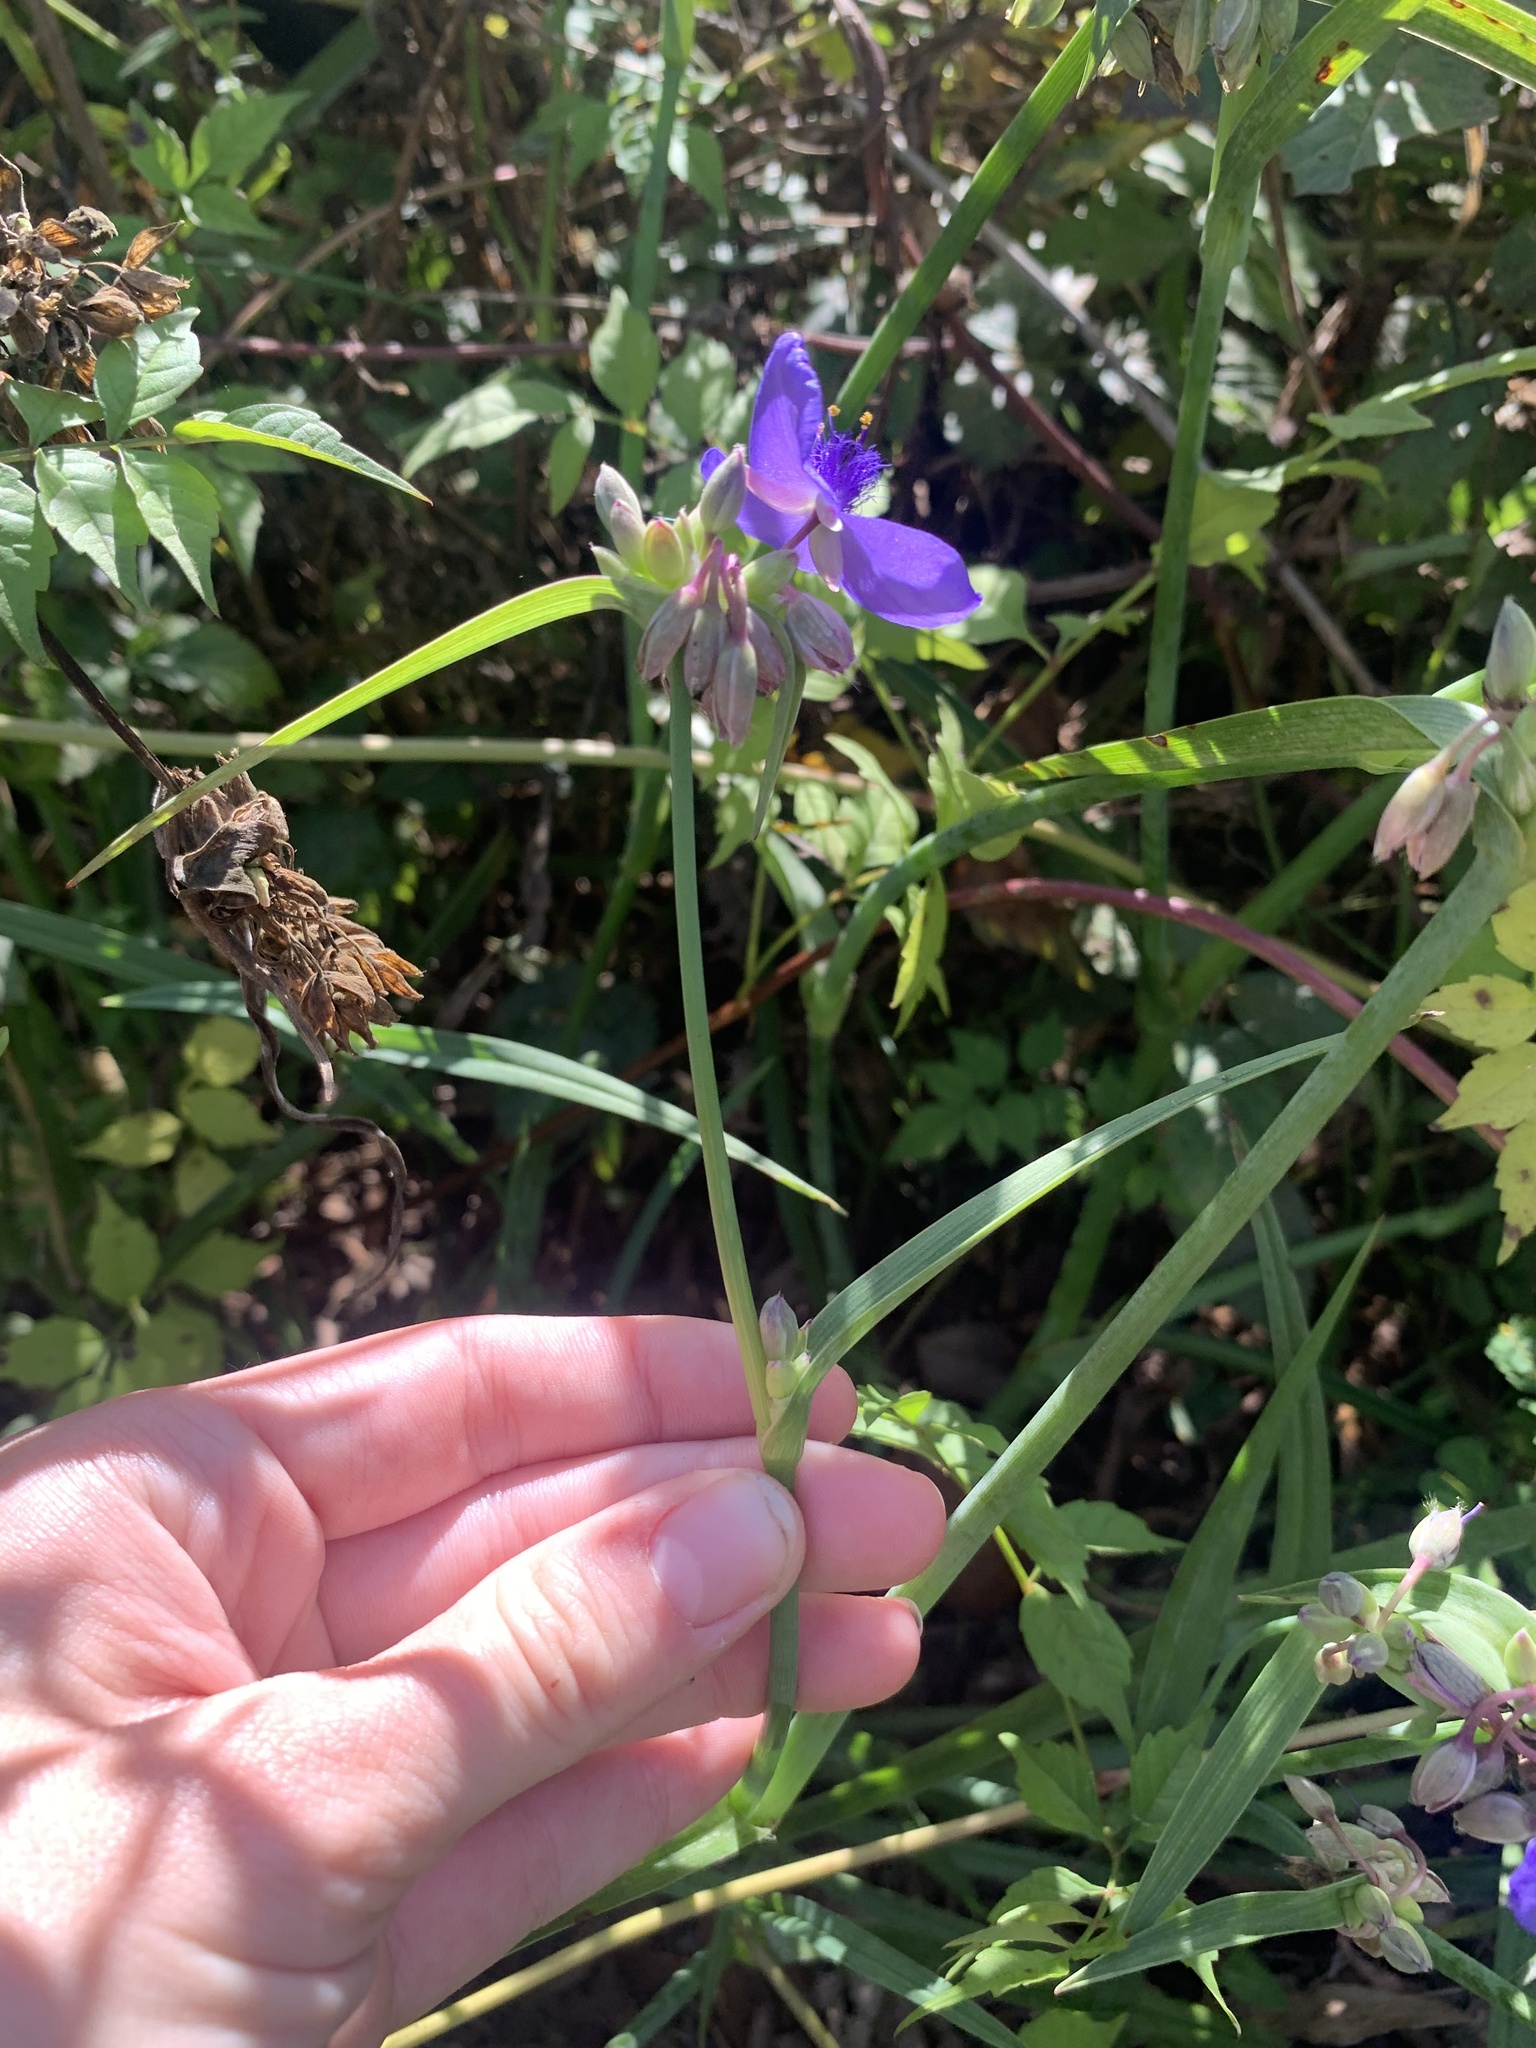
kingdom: Plantae
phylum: Tracheophyta
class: Liliopsida
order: Commelinales
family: Commelinaceae
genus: Tradescantia
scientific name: Tradescantia ohiensis
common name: Ohio spiderwort
